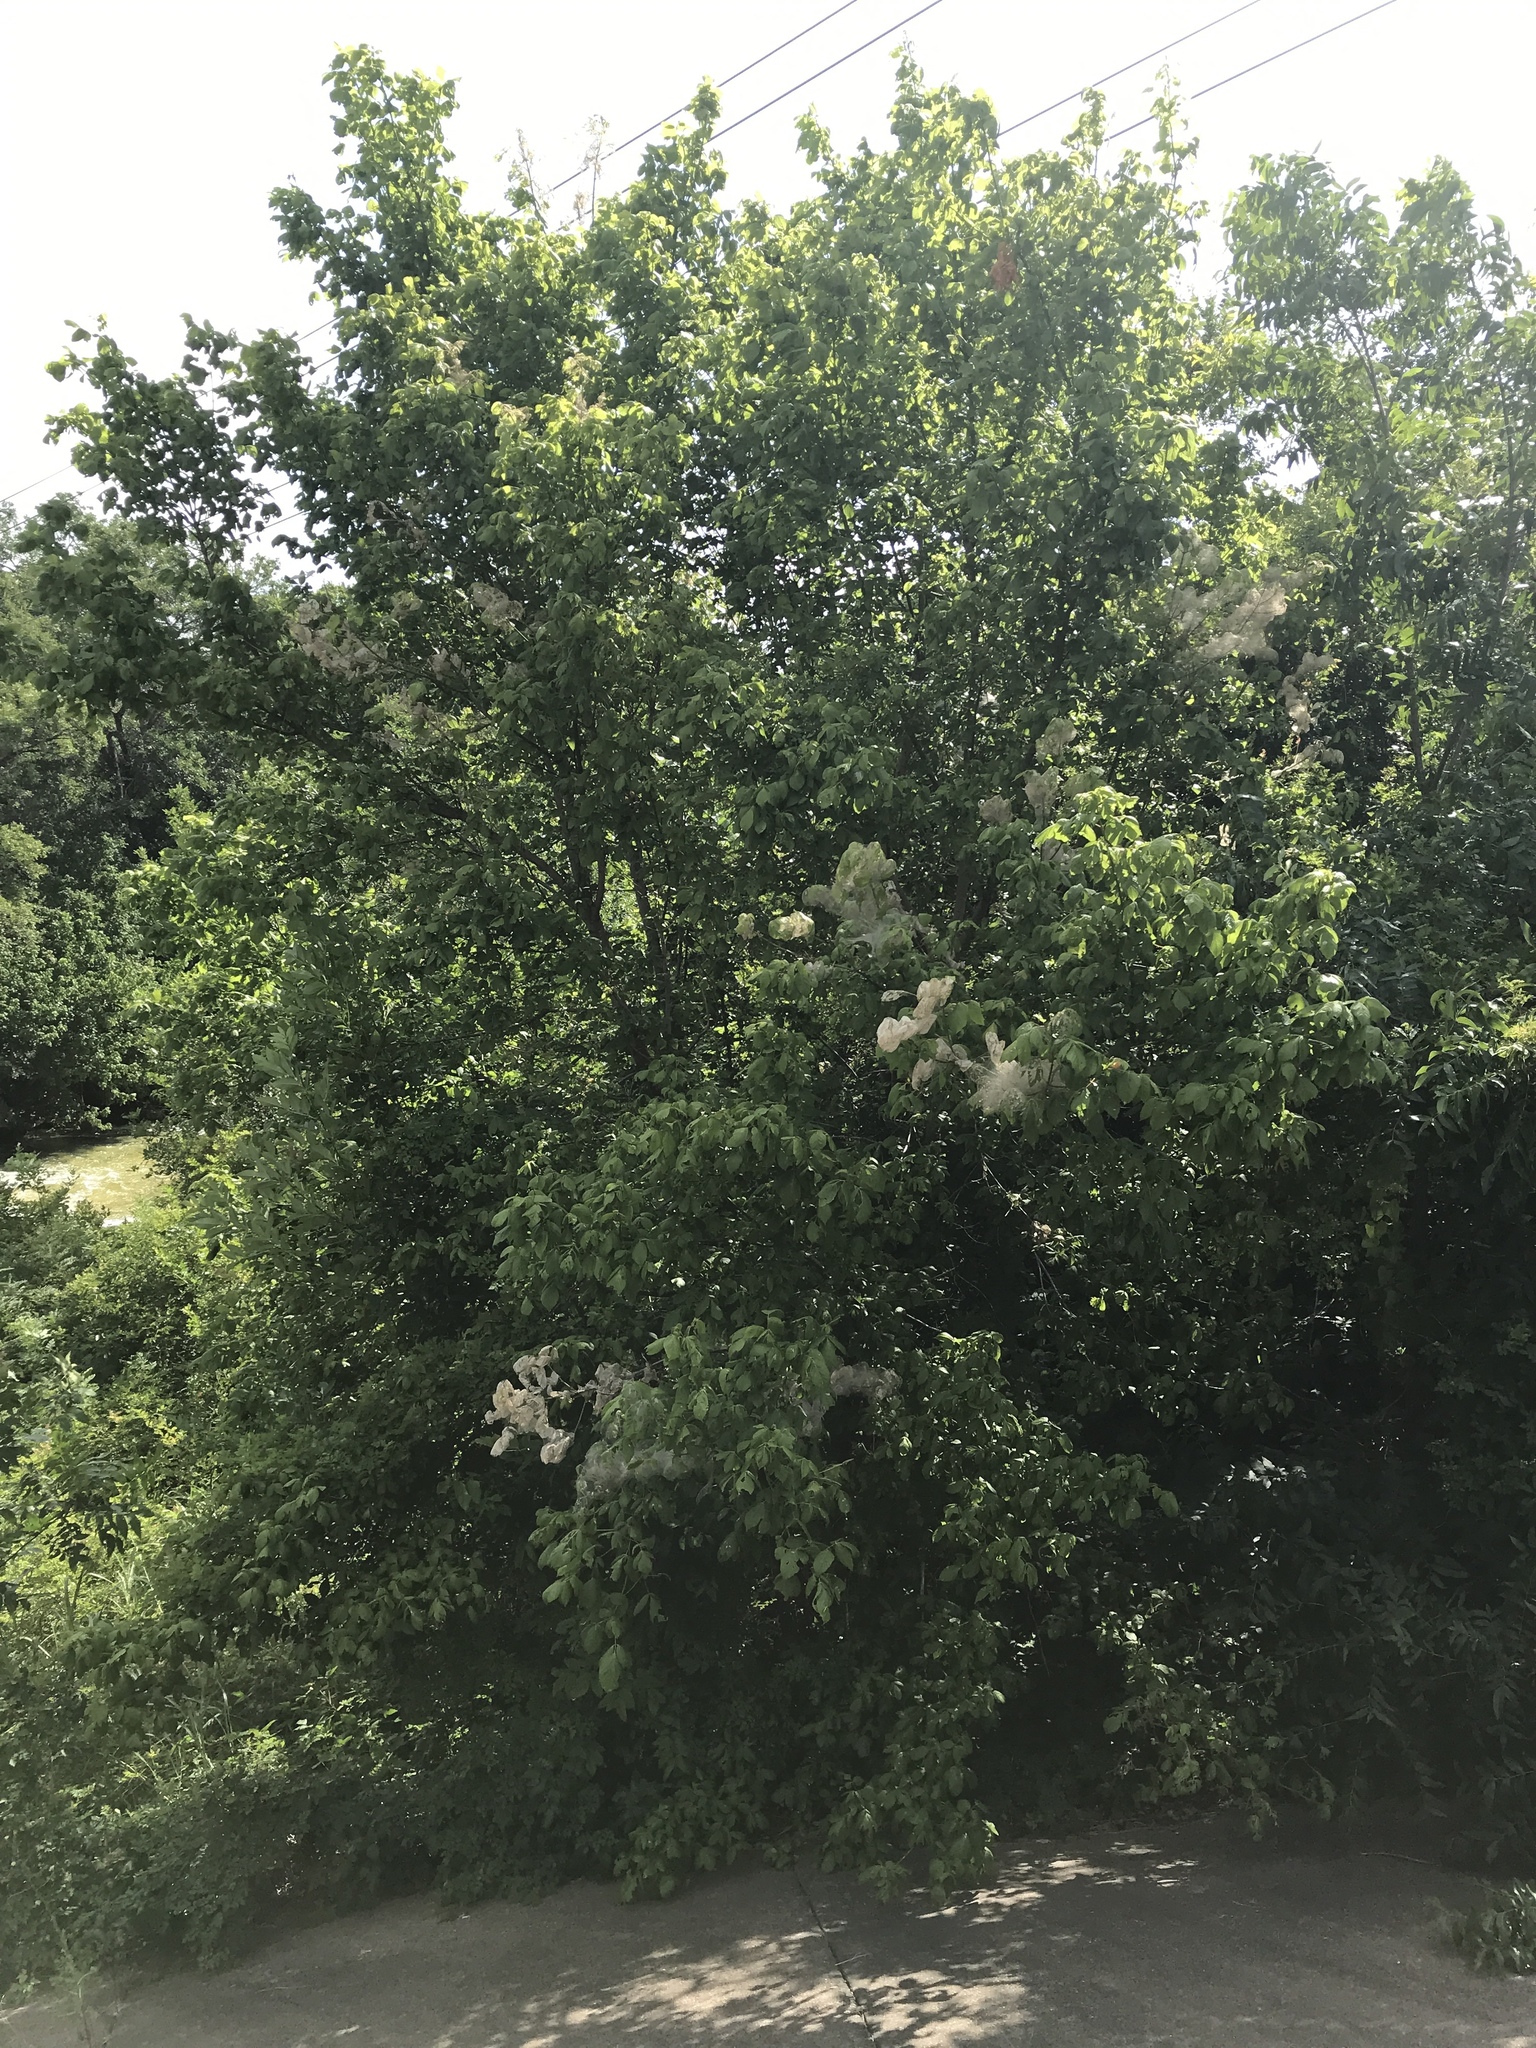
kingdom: Plantae
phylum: Tracheophyta
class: Magnoliopsida
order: Sapindales
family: Sapindaceae
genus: Acer
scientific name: Acer negundo
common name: Ashleaf maple
